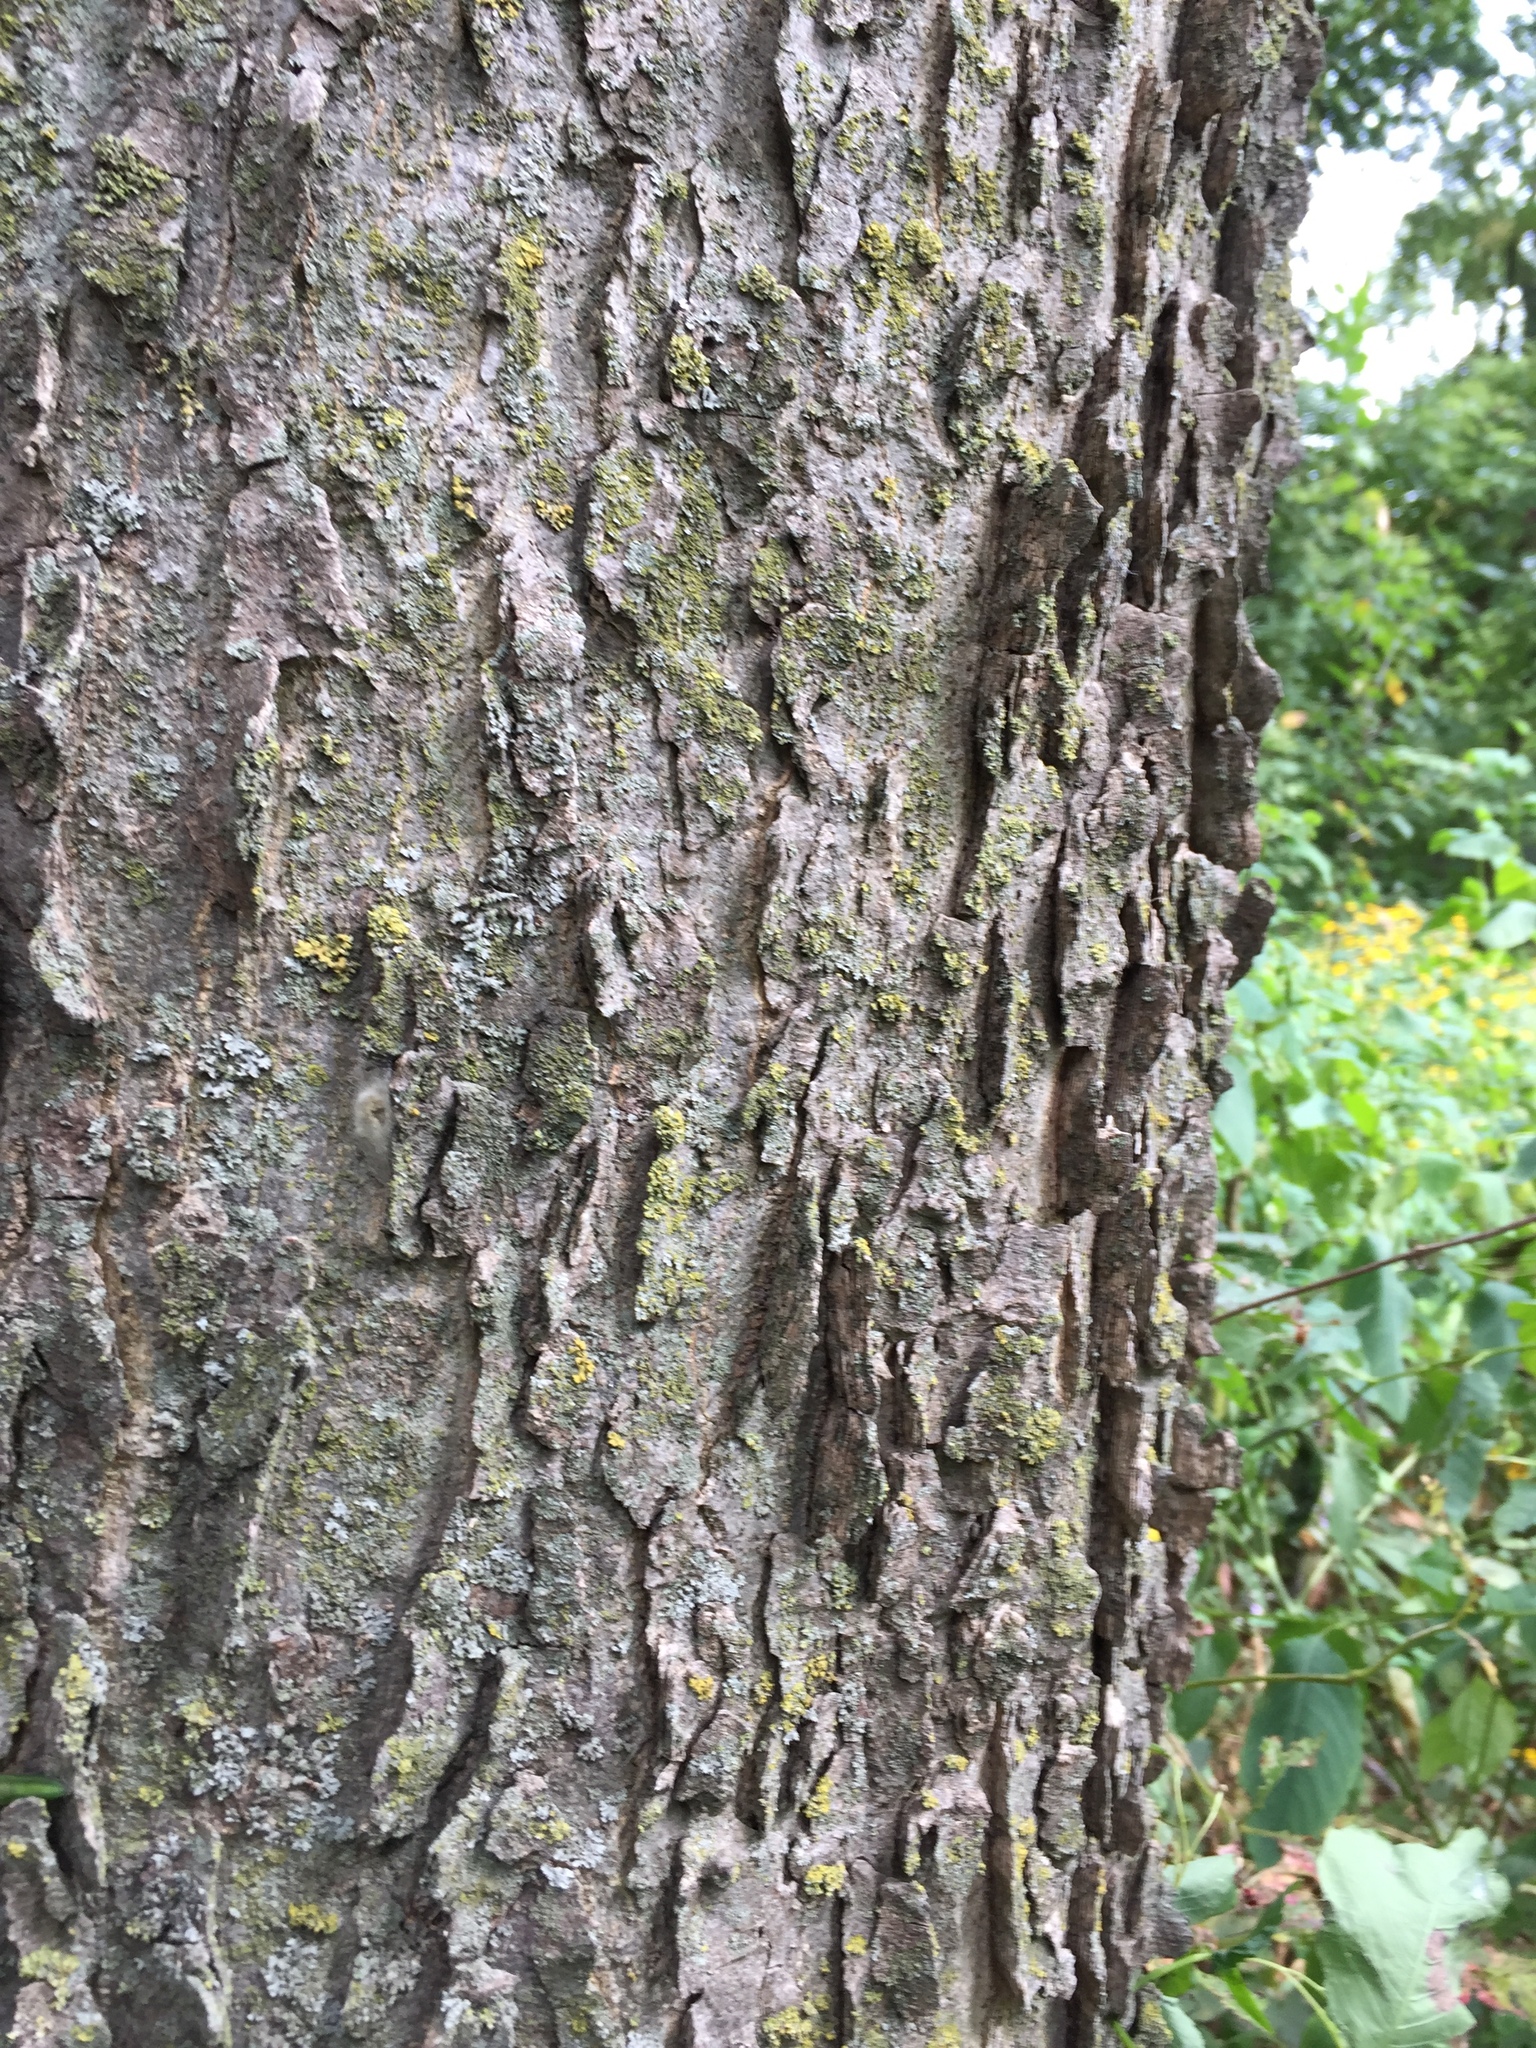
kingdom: Plantae
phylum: Tracheophyta
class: Magnoliopsida
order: Rosales
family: Cannabaceae
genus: Celtis
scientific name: Celtis occidentalis
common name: Common hackberry
